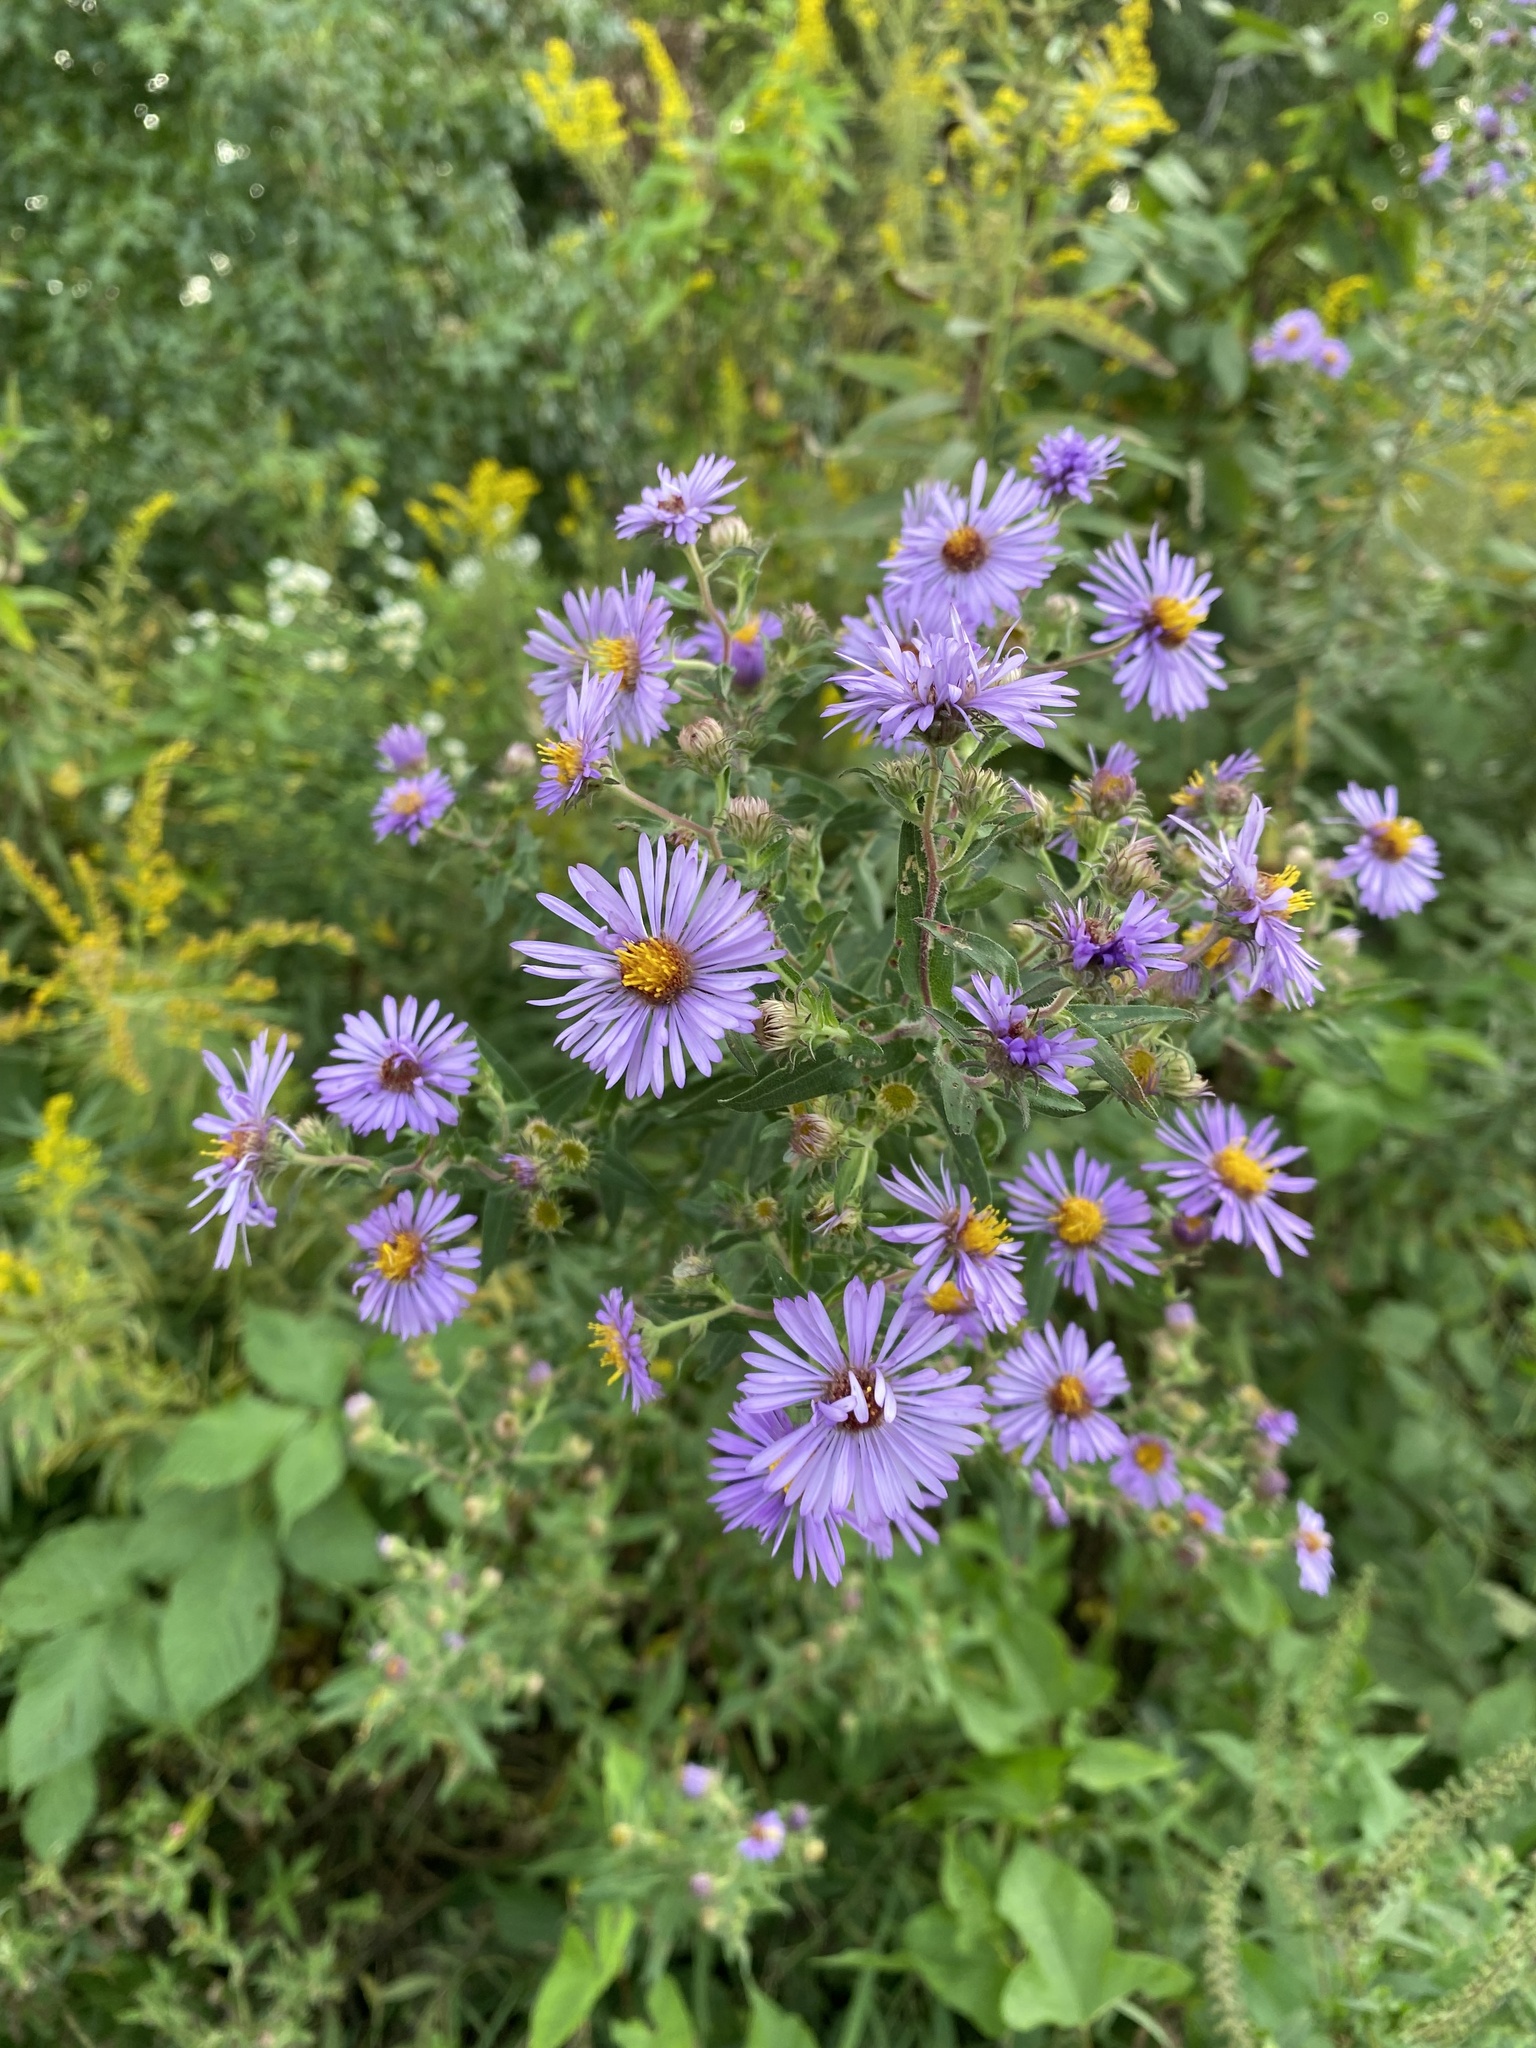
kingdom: Plantae
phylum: Tracheophyta
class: Magnoliopsida
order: Asterales
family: Asteraceae
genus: Symphyotrichum
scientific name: Symphyotrichum novae-angliae
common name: Michaelmas daisy
